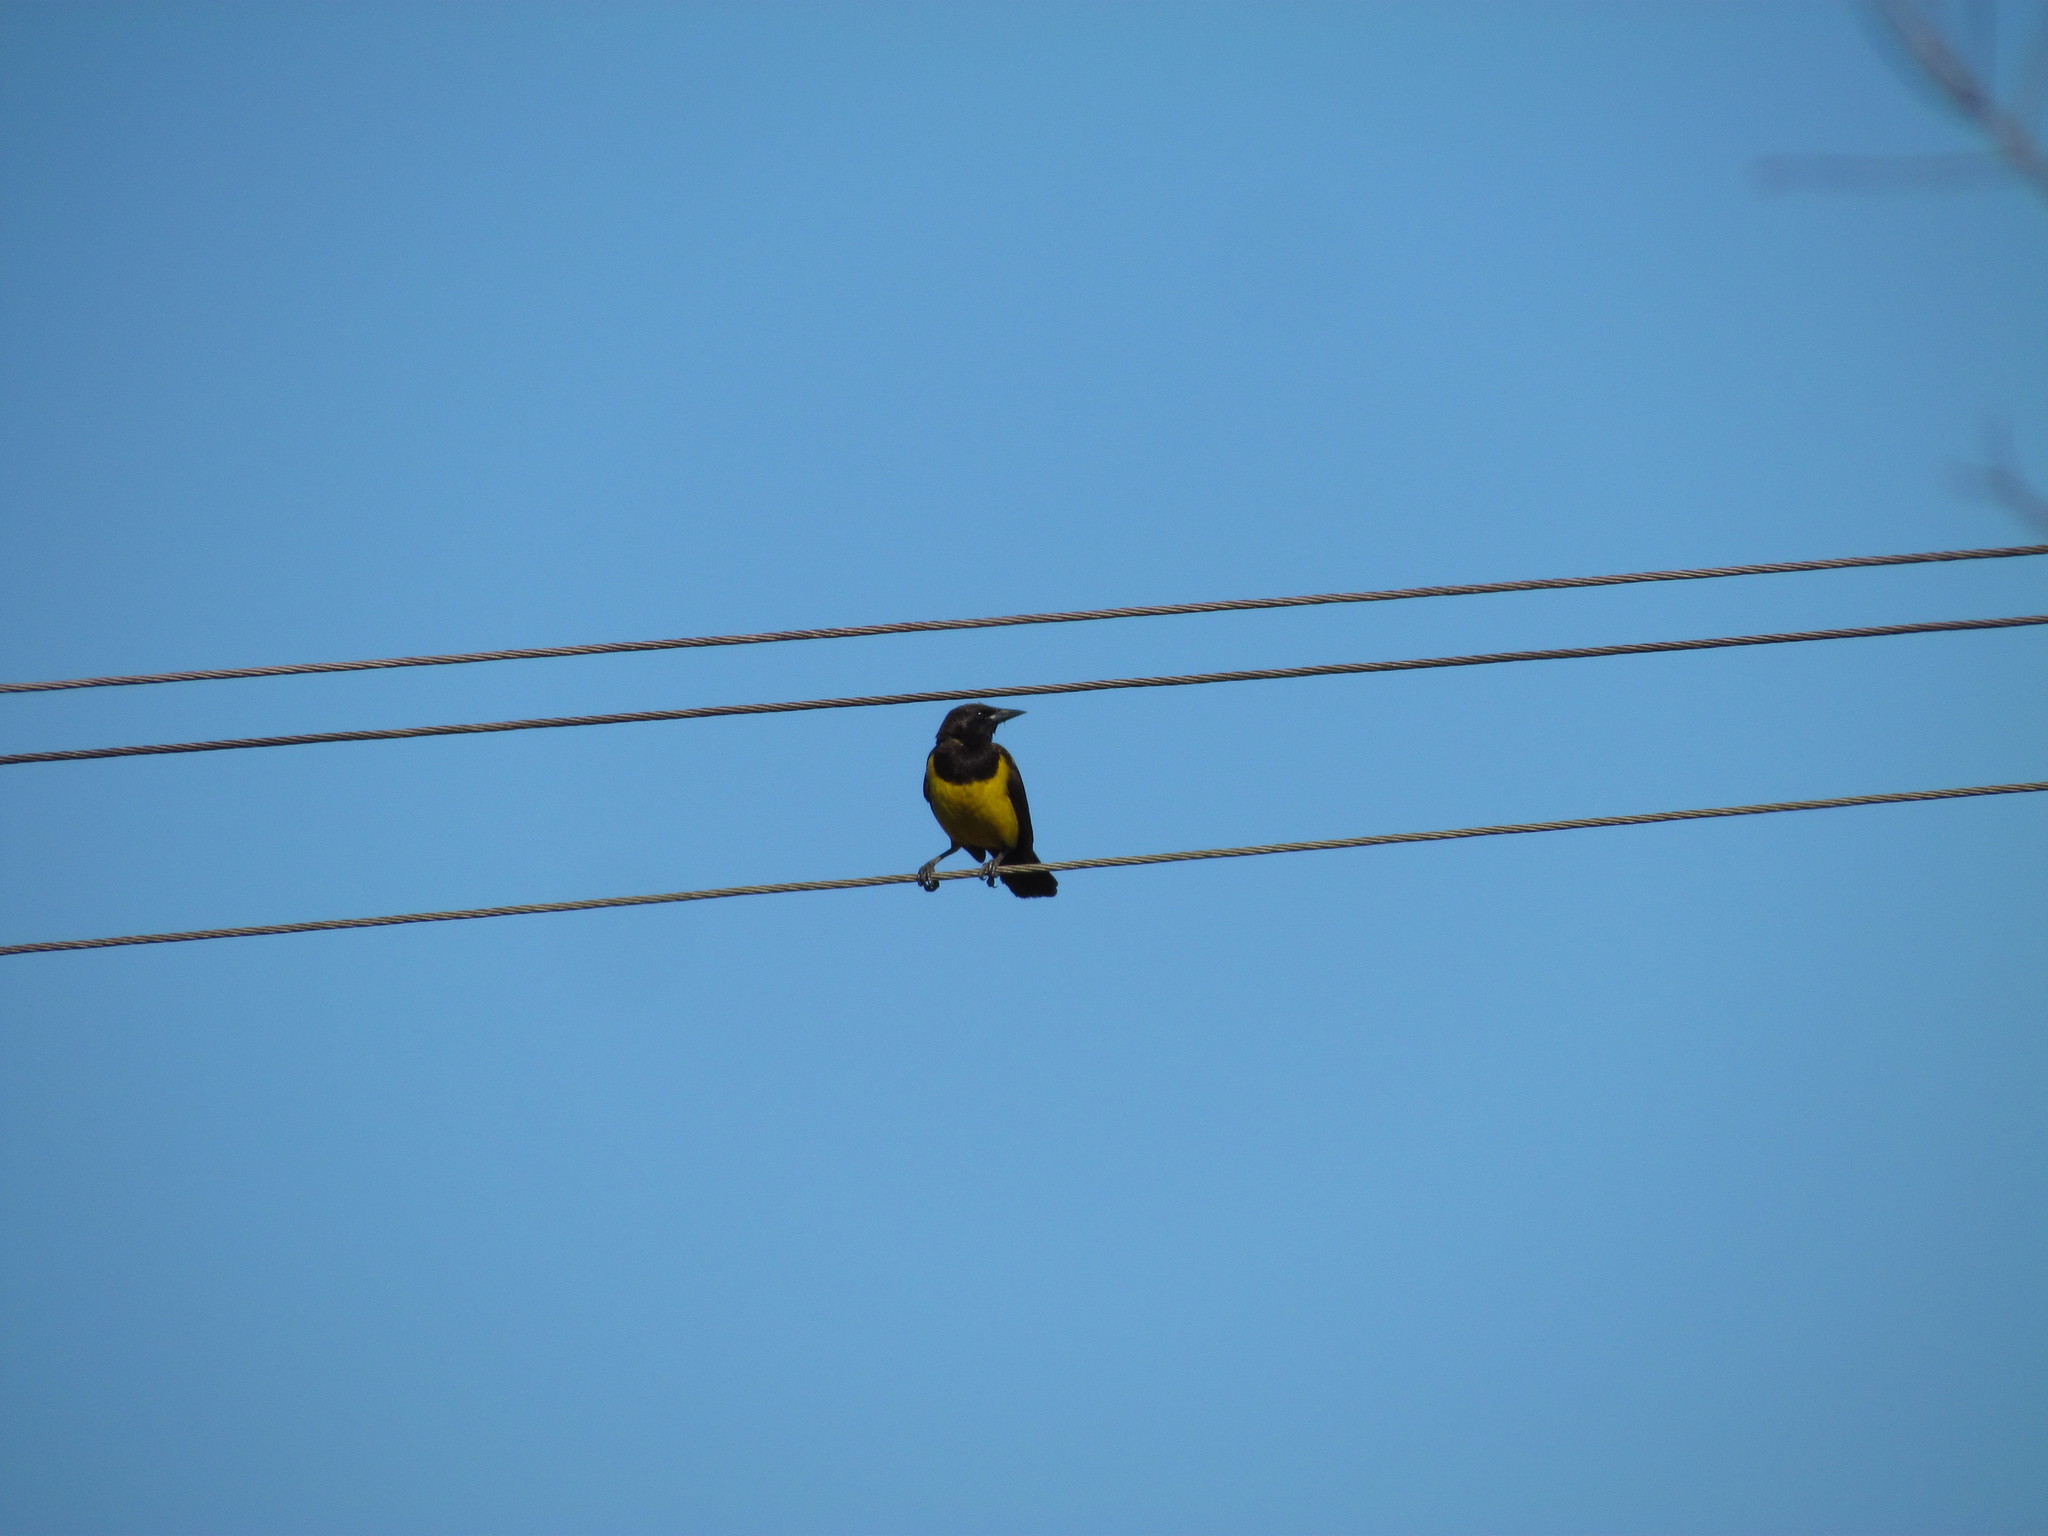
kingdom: Animalia
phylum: Chordata
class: Aves
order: Passeriformes
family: Icteridae
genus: Pseudoleistes
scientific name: Pseudoleistes guirahuro
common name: Yellow-rumped marshbird
